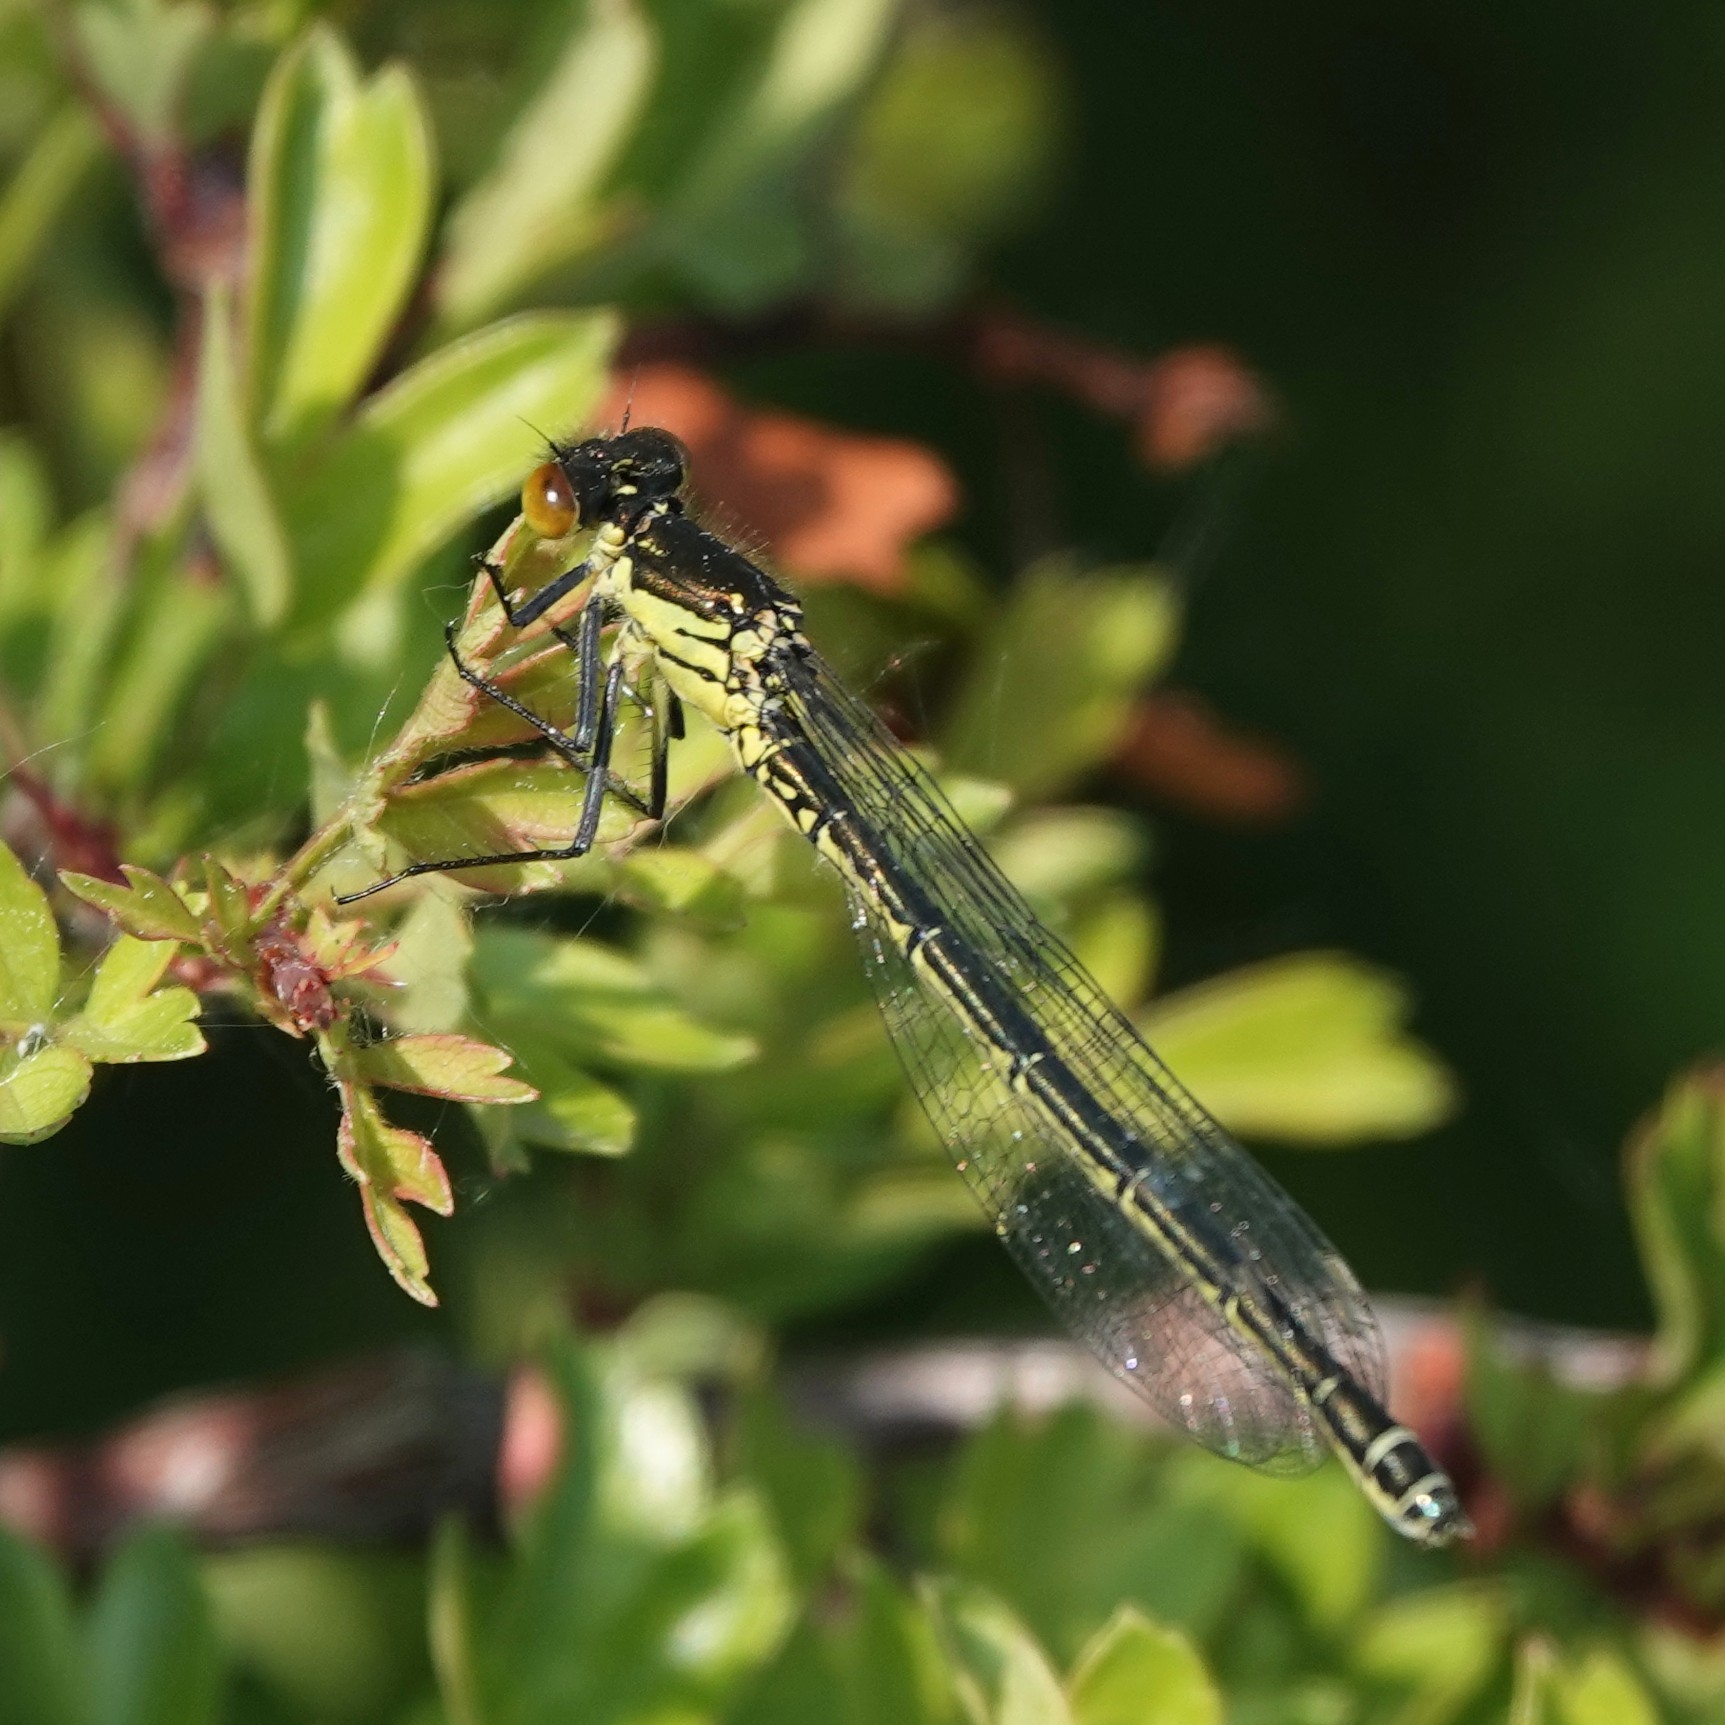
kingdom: Animalia
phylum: Arthropoda
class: Insecta
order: Odonata
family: Coenagrionidae
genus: Erythromma
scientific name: Erythromma najas
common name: Red-eyed damselfly
